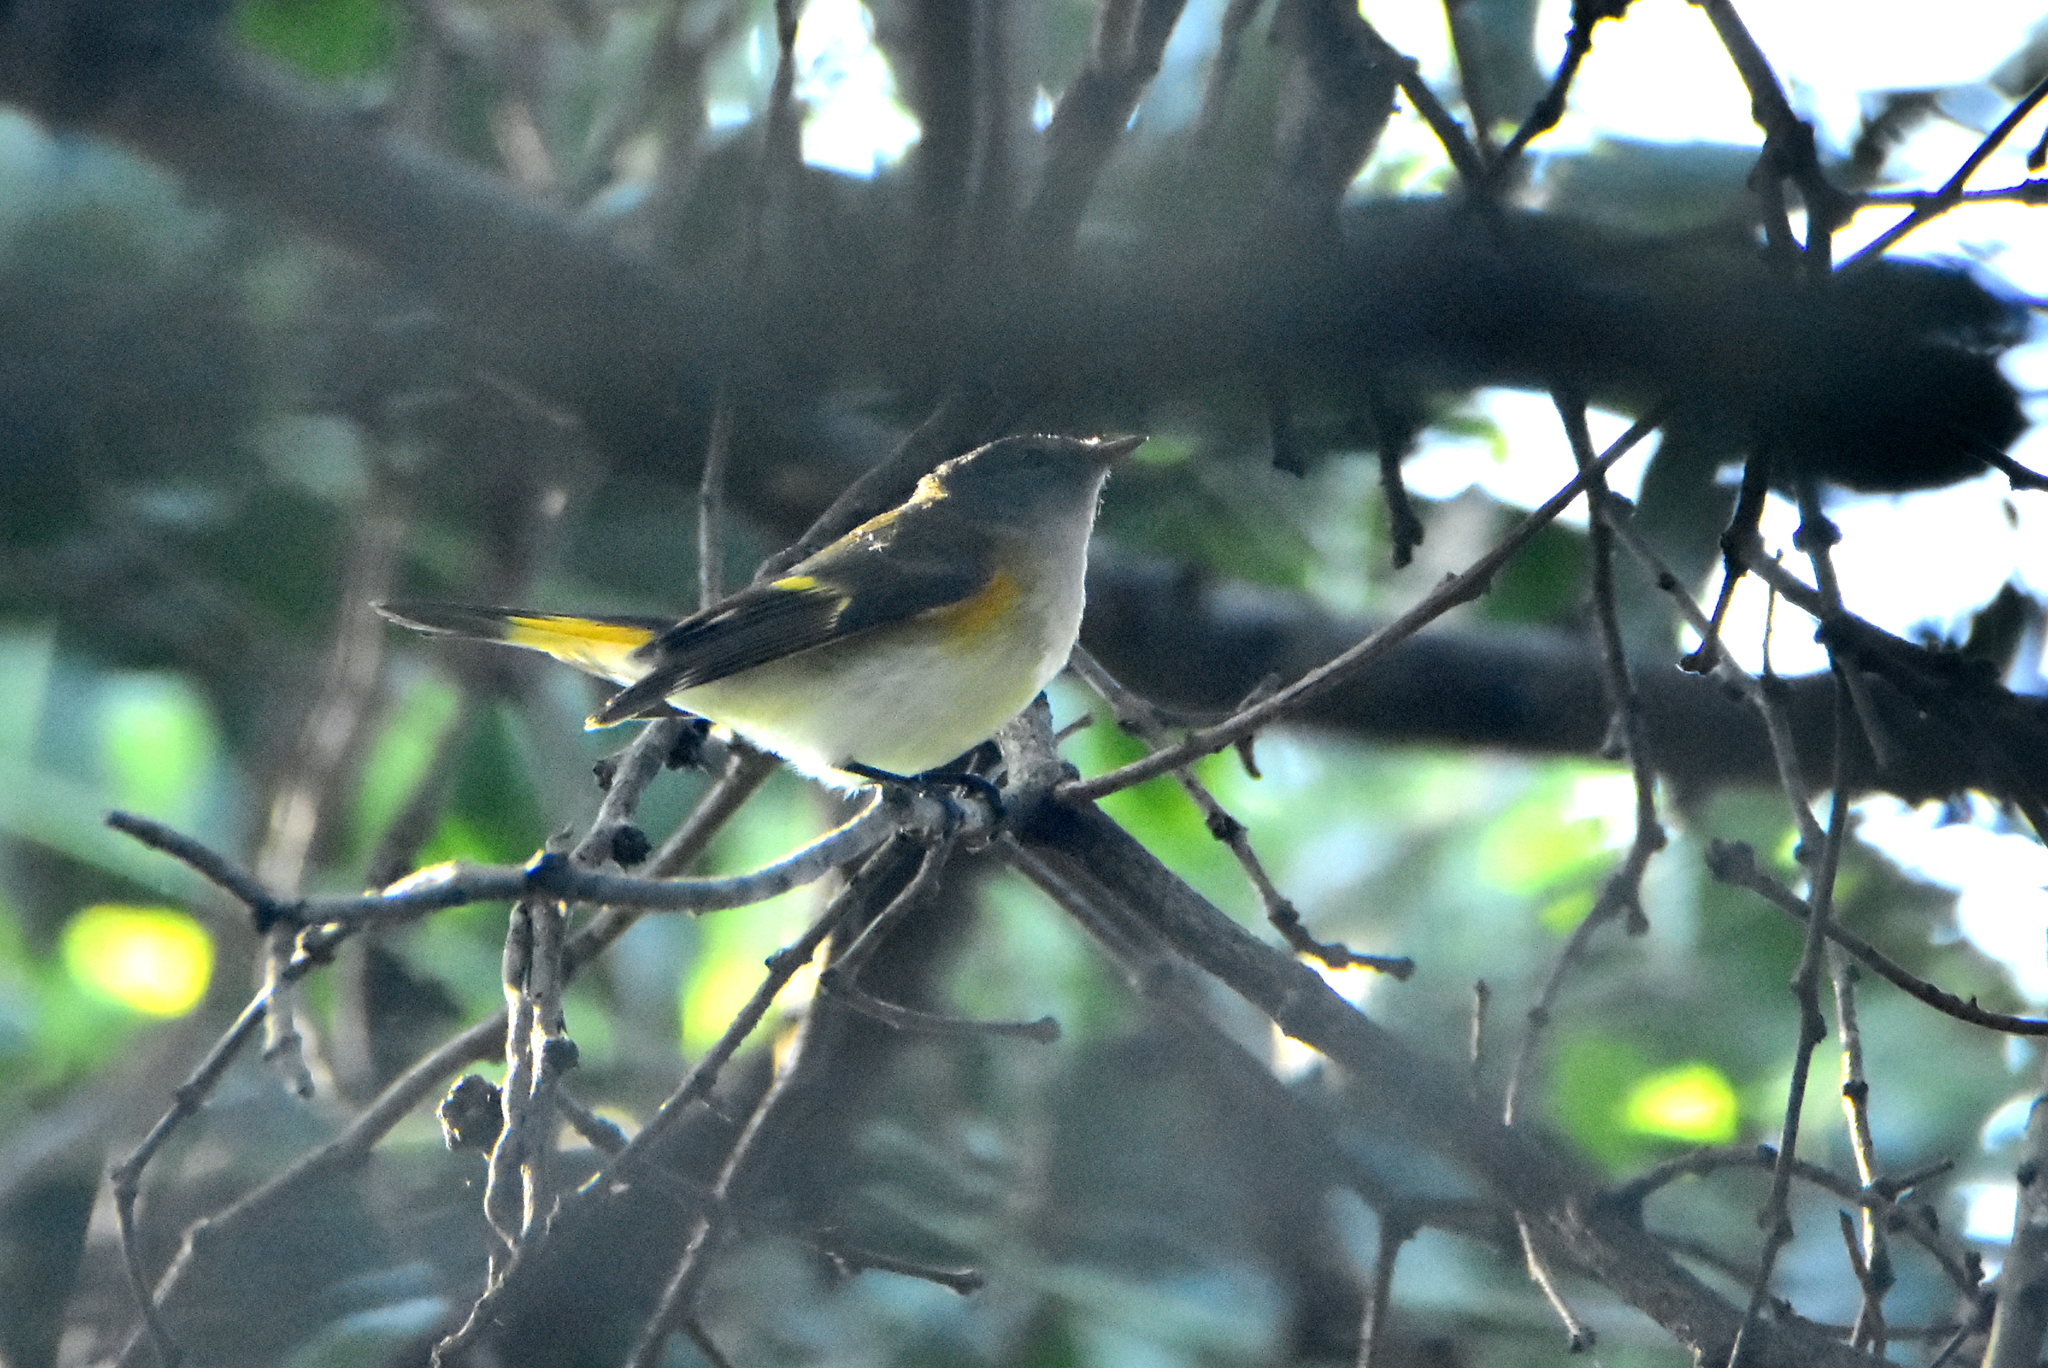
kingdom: Animalia
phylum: Chordata
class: Aves
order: Passeriformes
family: Parulidae
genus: Setophaga
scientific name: Setophaga ruticilla
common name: American redstart
